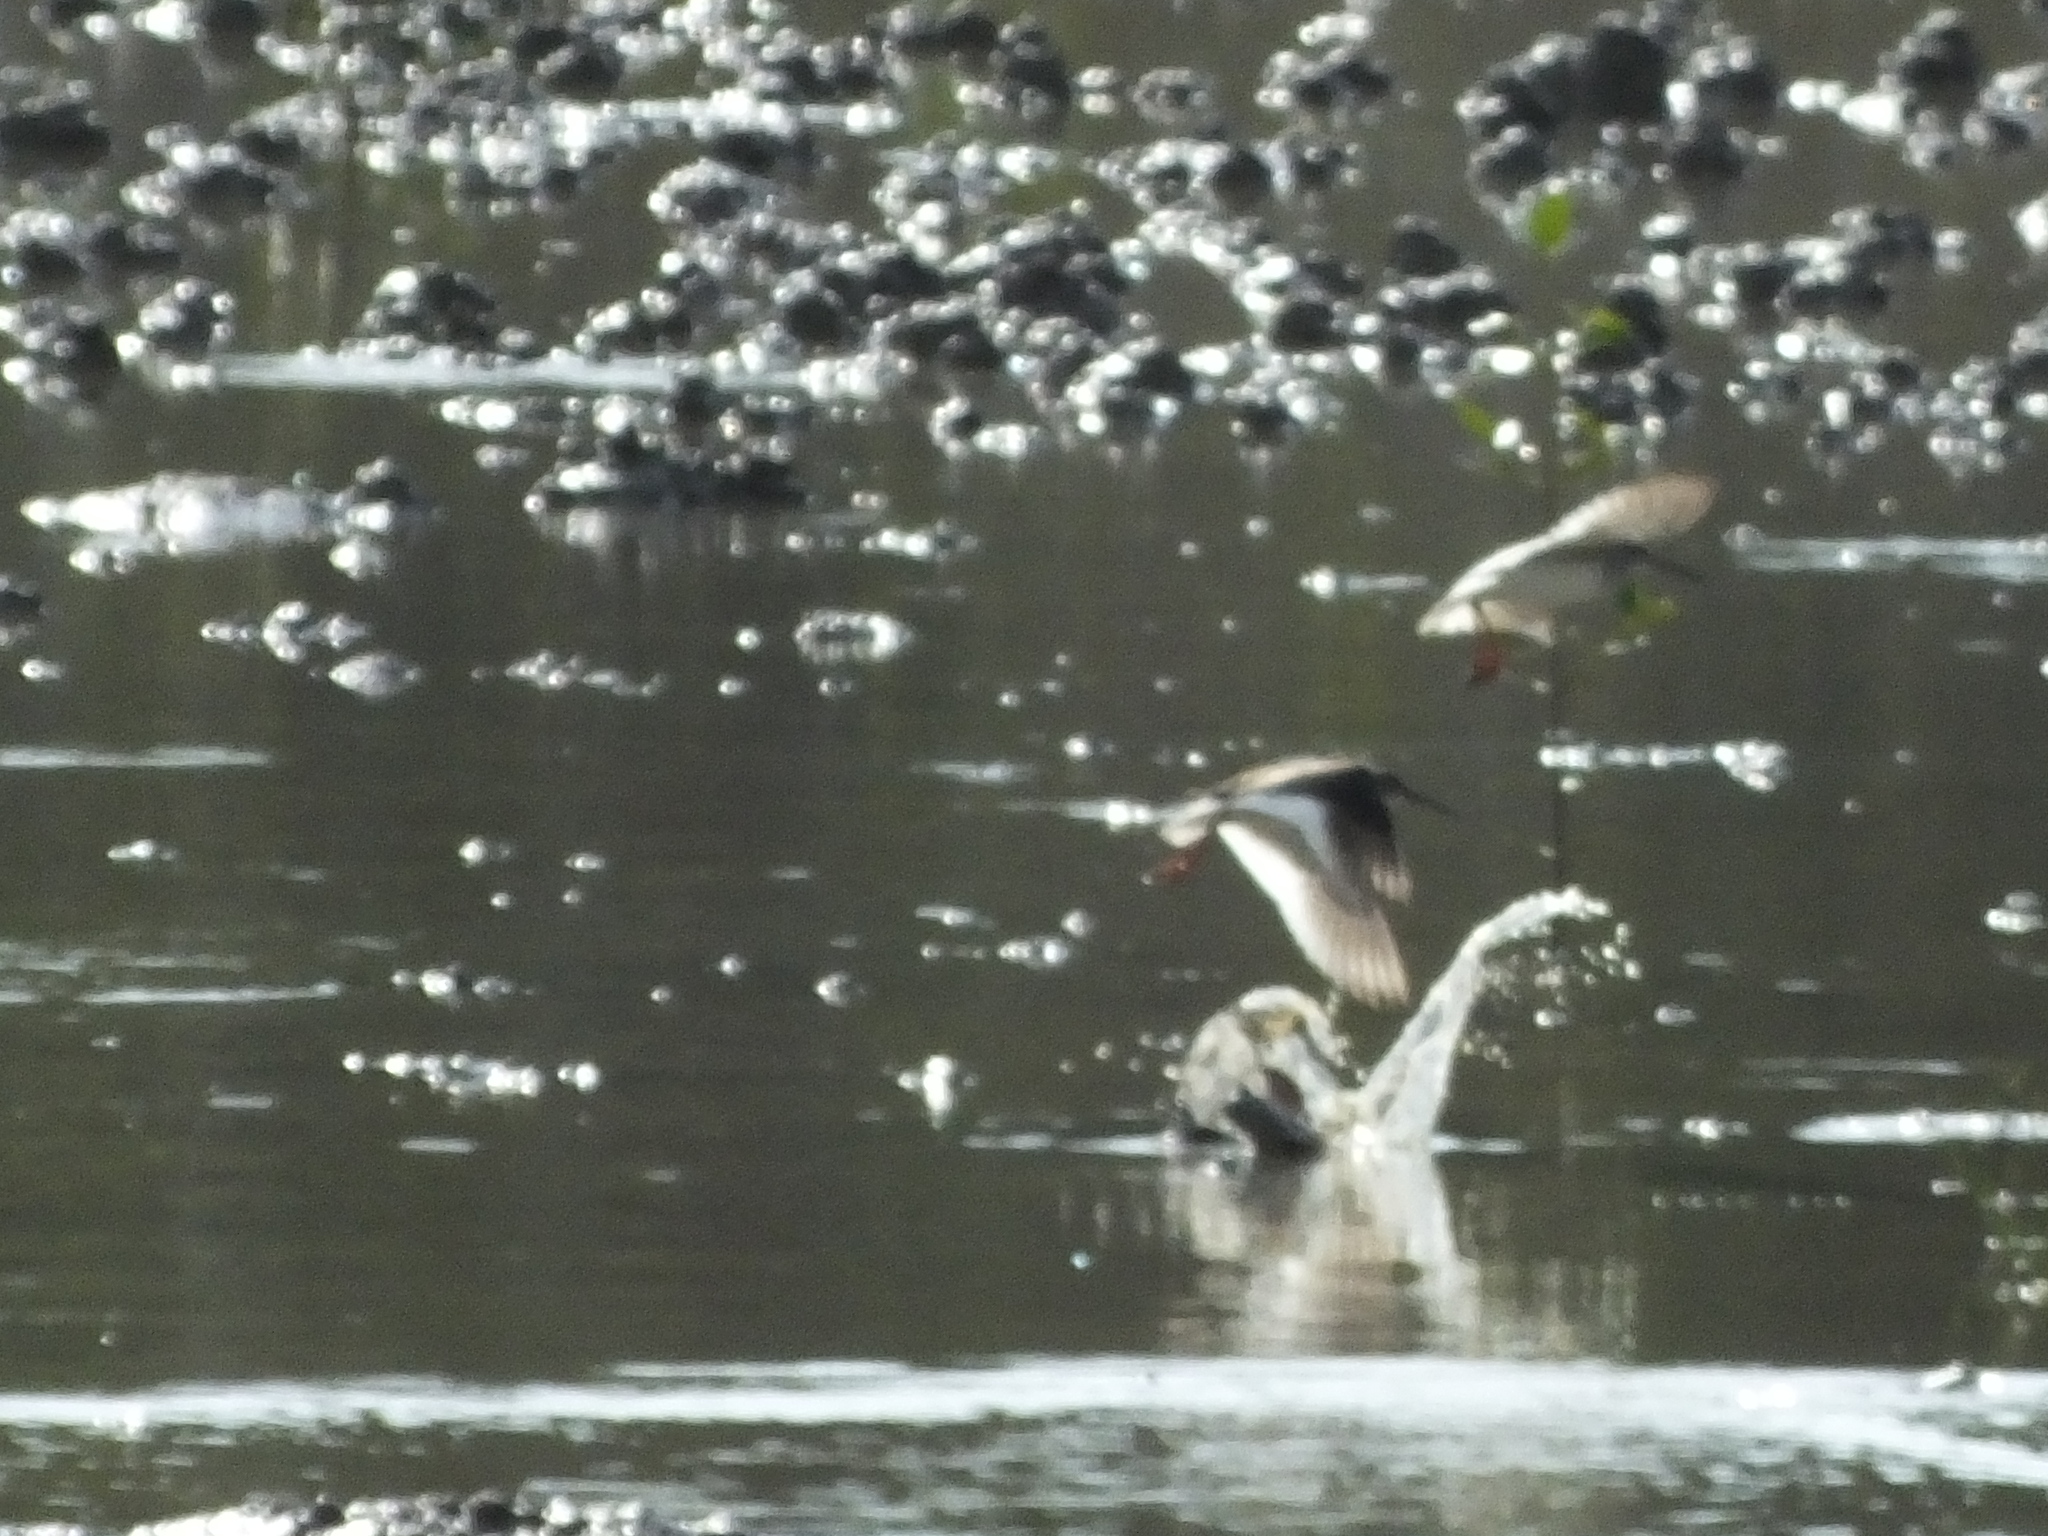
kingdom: Animalia
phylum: Chordata
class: Aves
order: Charadriiformes
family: Scolopacidae
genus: Tringa
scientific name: Tringa totanus
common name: Common redshank
